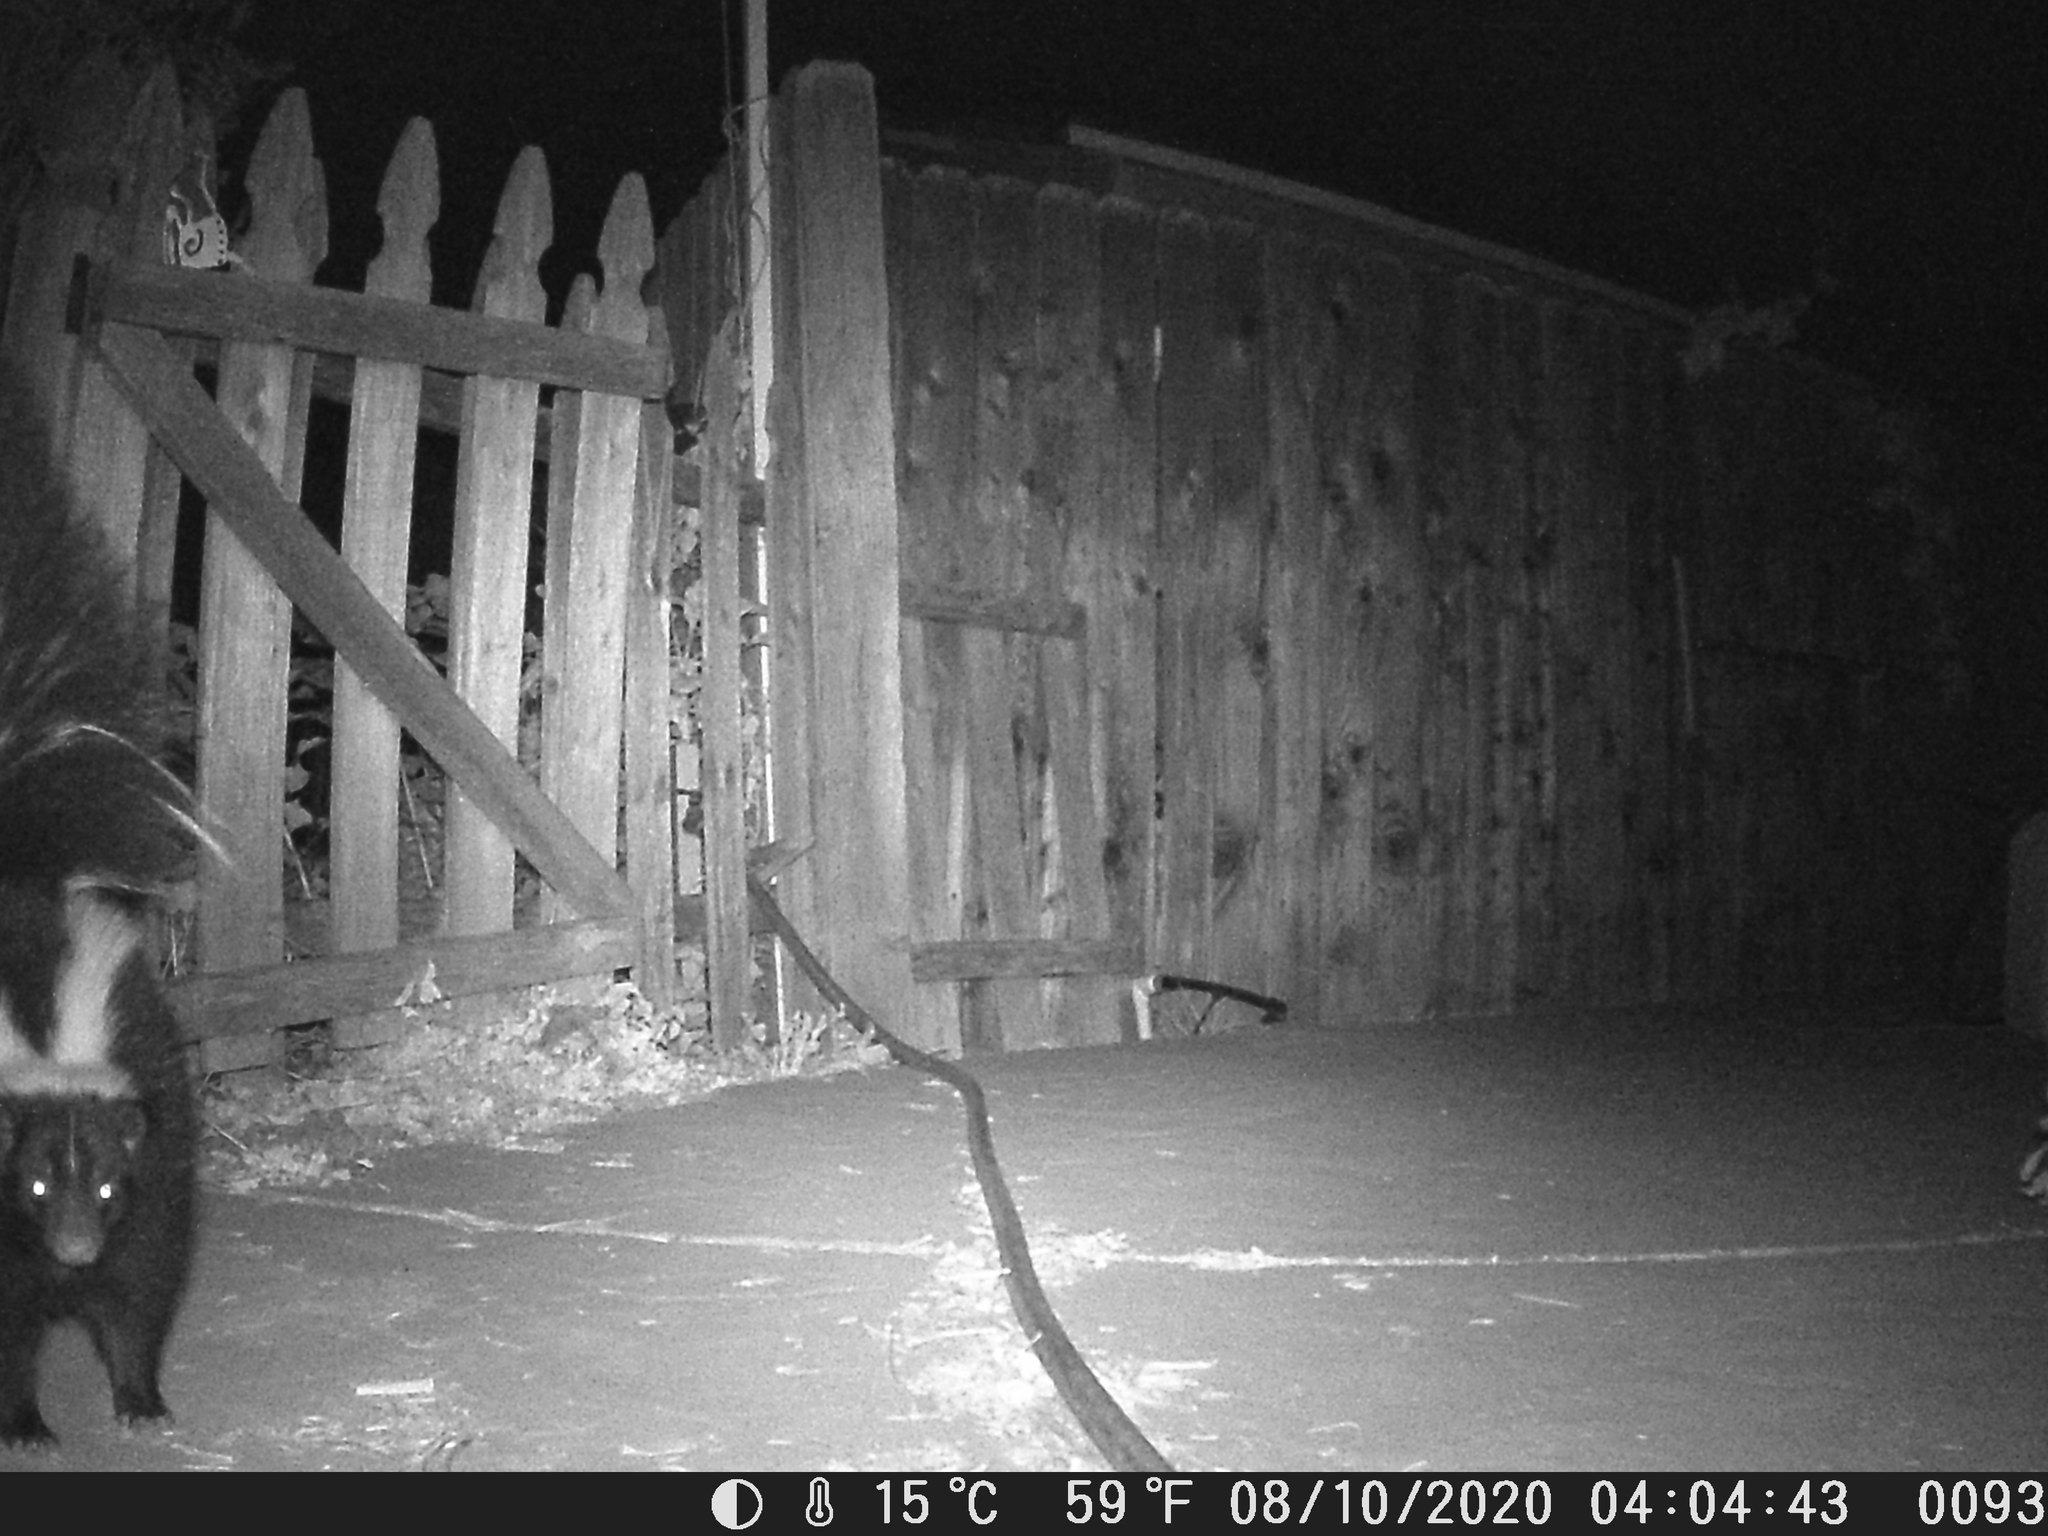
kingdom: Animalia
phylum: Chordata
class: Mammalia
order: Carnivora
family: Mephitidae
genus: Mephitis
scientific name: Mephitis mephitis
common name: Striped skunk
